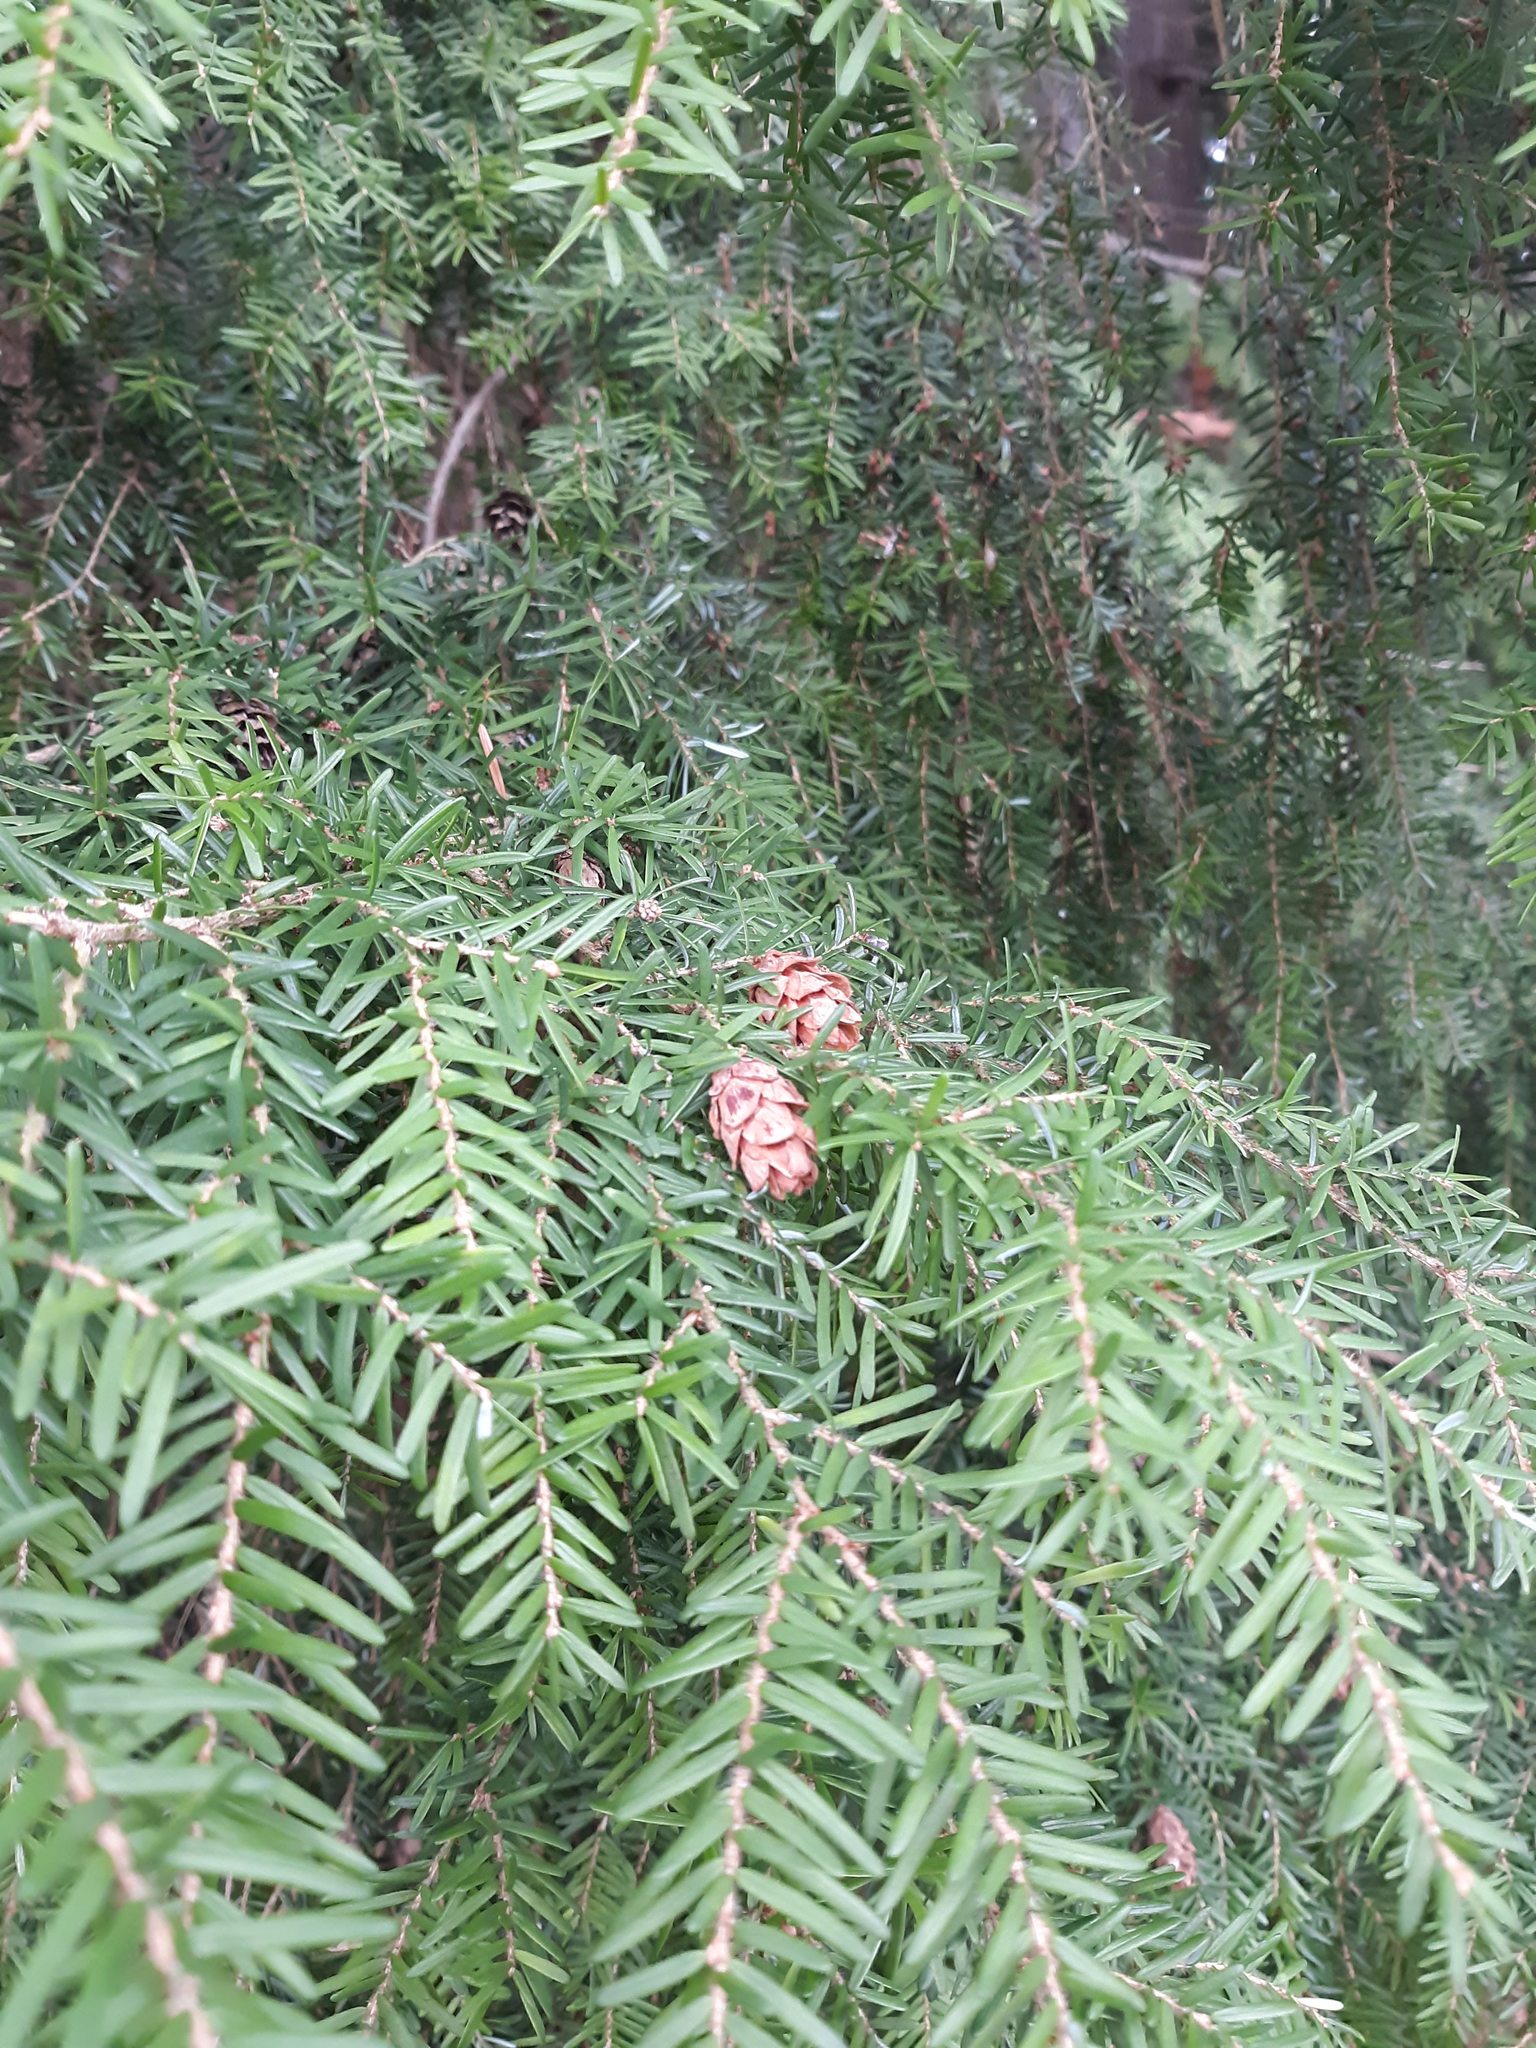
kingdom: Plantae
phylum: Tracheophyta
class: Pinopsida
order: Pinales
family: Pinaceae
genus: Tsuga
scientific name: Tsuga heterophylla
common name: Western hemlock
